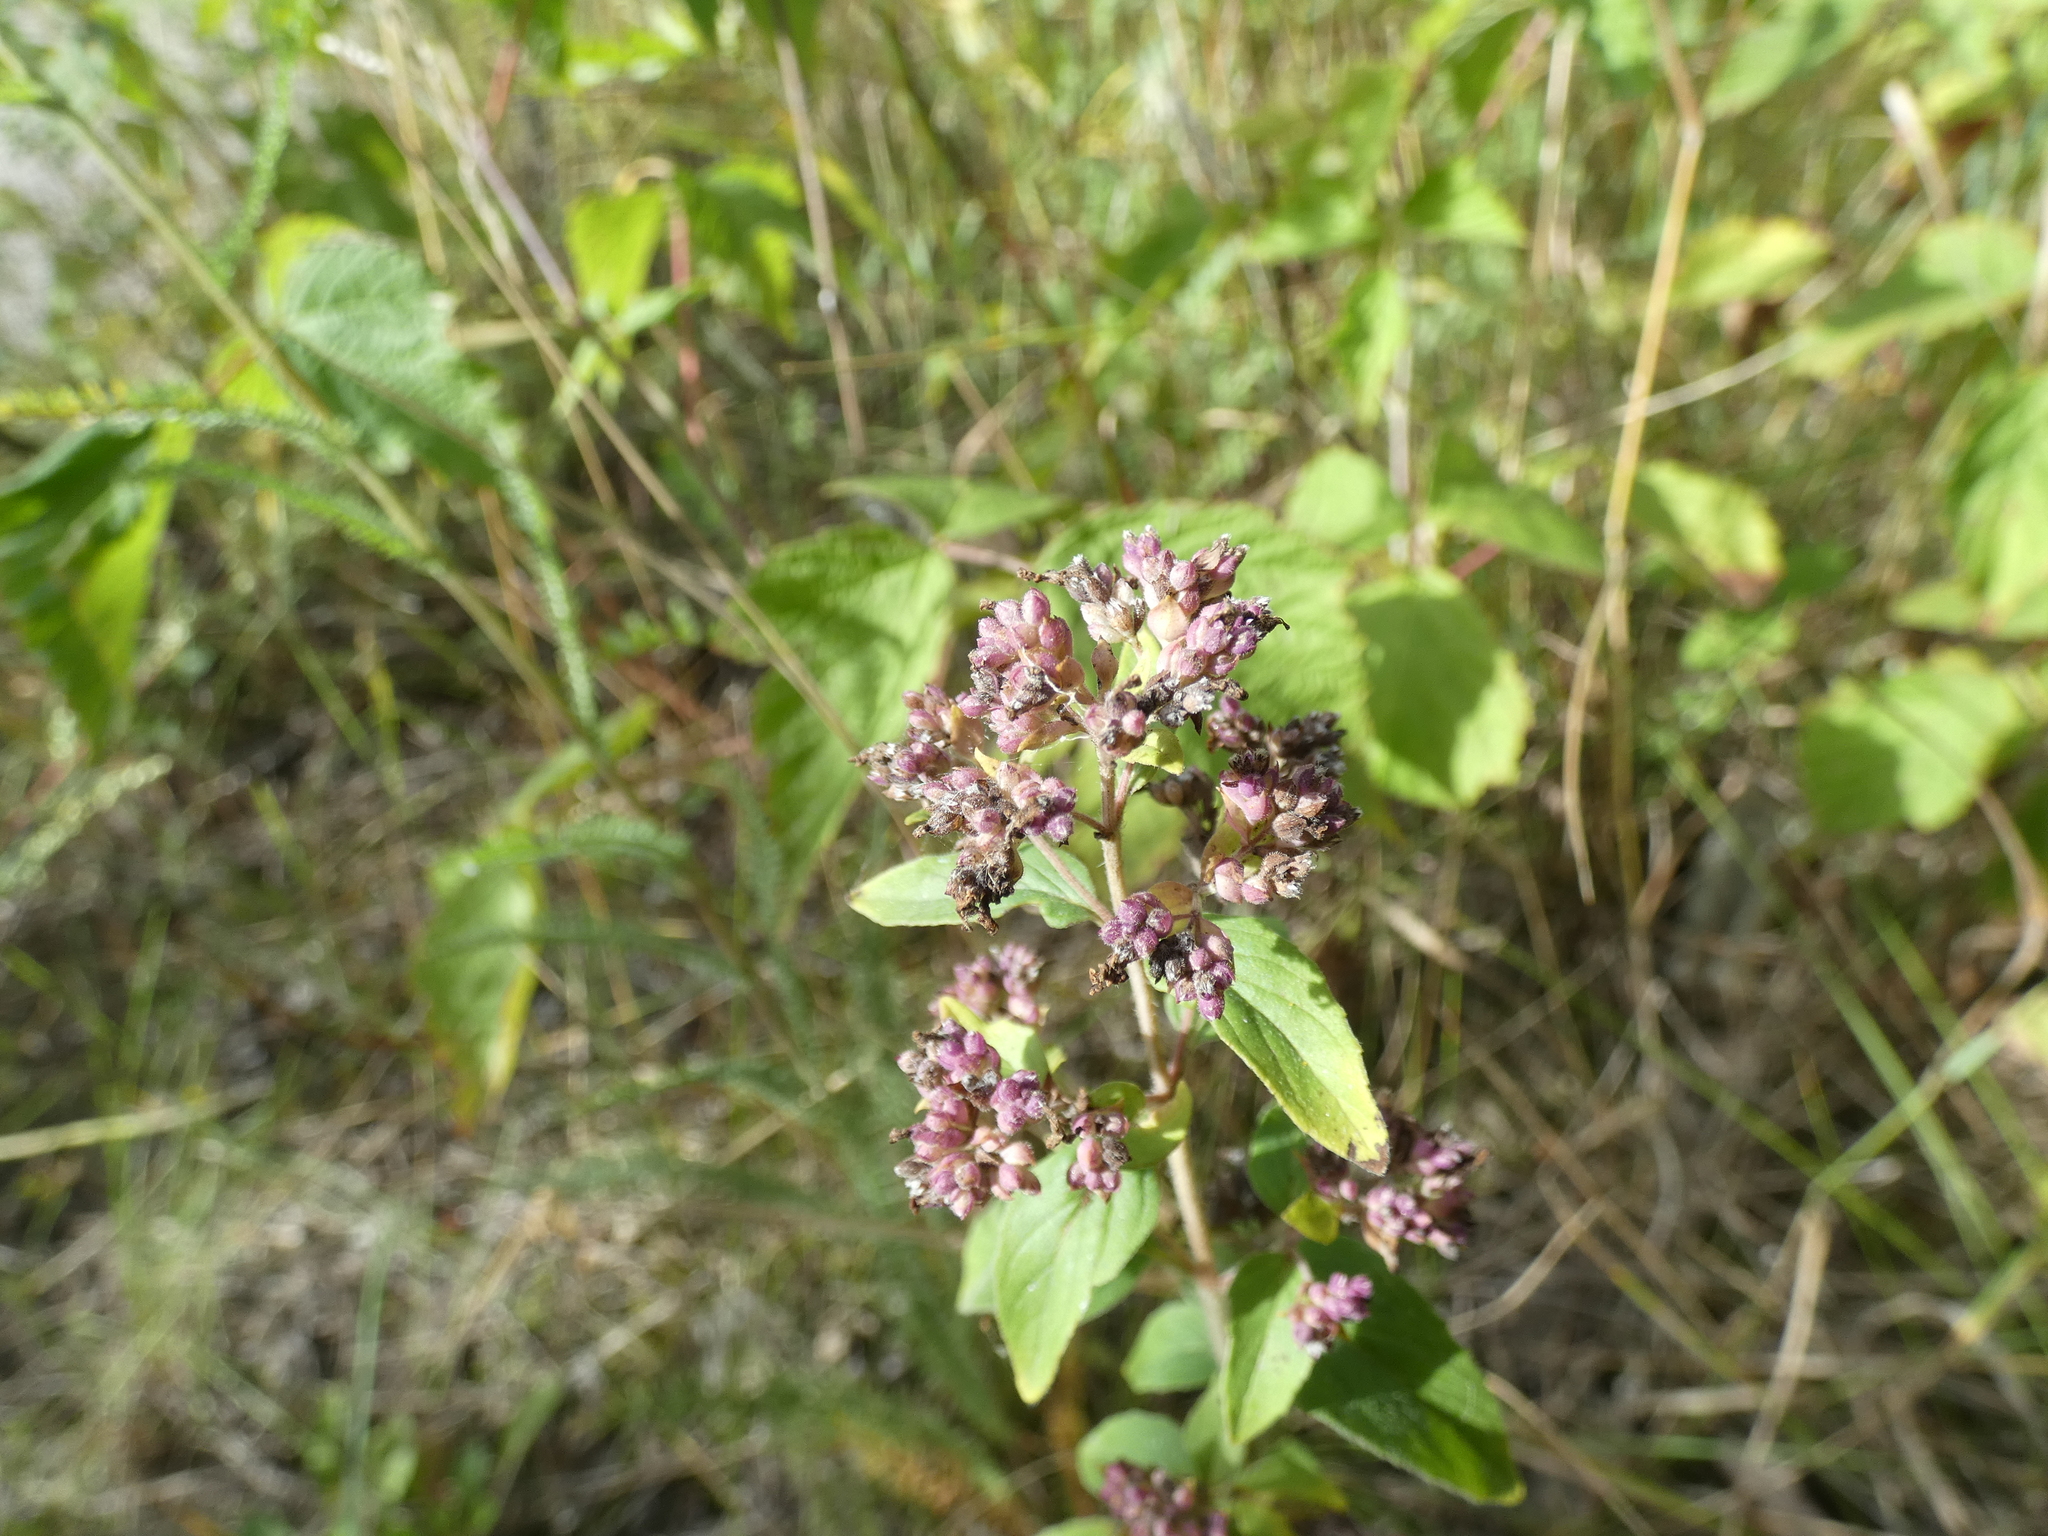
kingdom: Plantae
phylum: Tracheophyta
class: Magnoliopsida
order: Lamiales
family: Lamiaceae
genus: Origanum
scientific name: Origanum vulgare
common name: Wild marjoram
